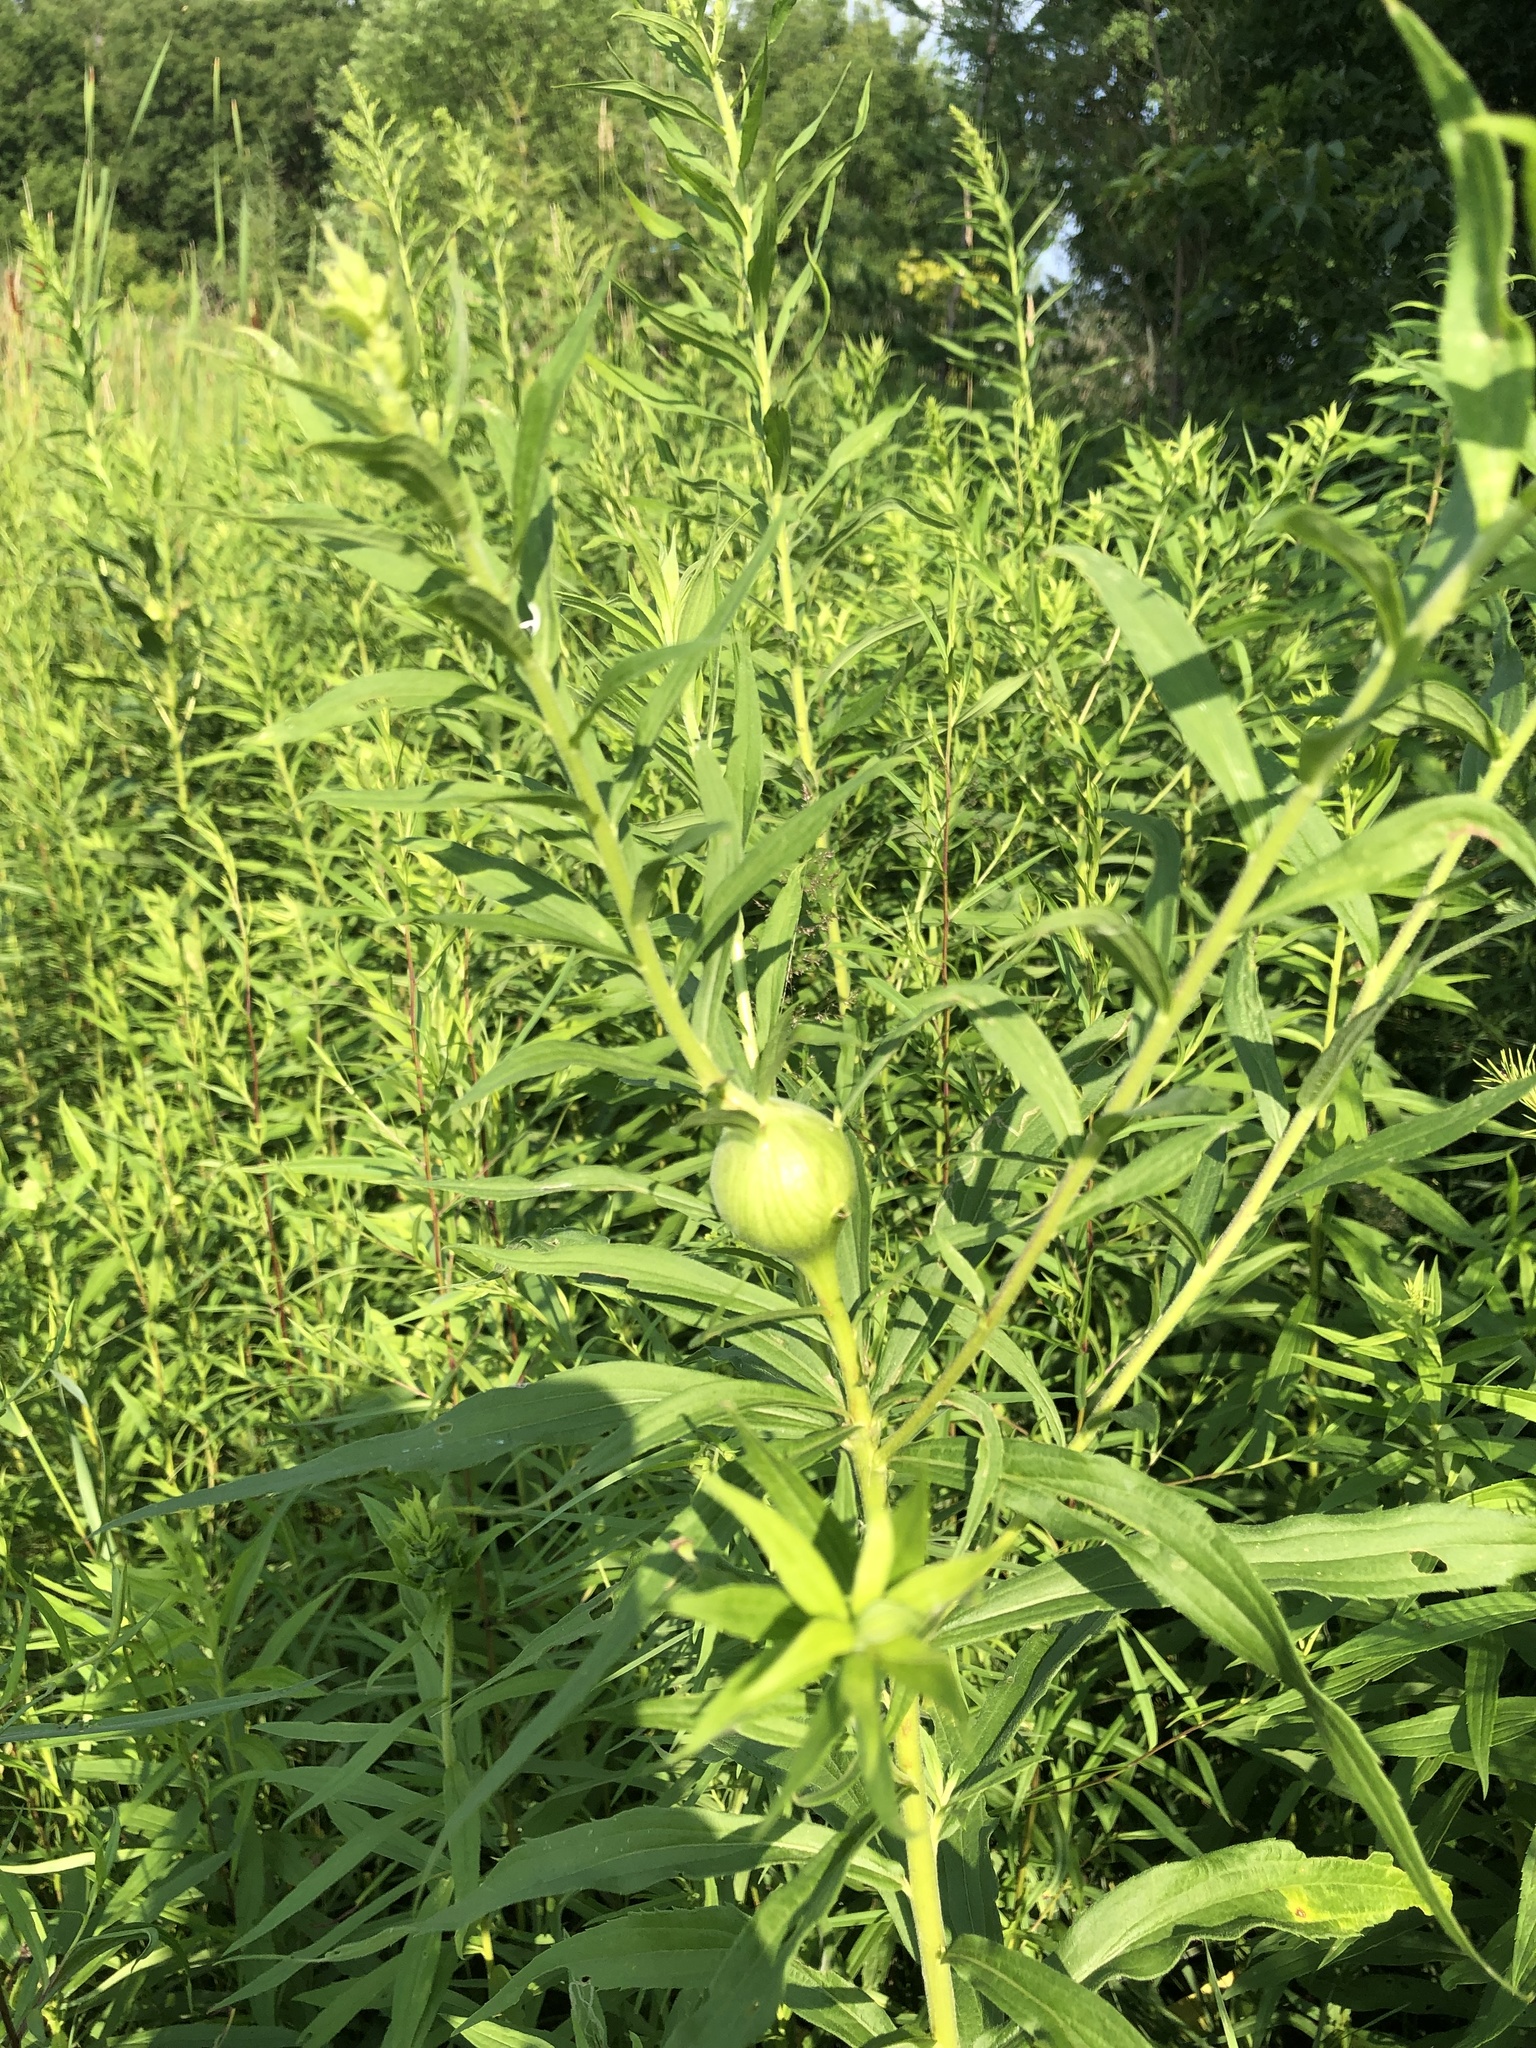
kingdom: Animalia
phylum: Arthropoda
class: Insecta
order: Diptera
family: Tephritidae
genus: Eurosta
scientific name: Eurosta solidaginis
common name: Goldenrod gall fly
